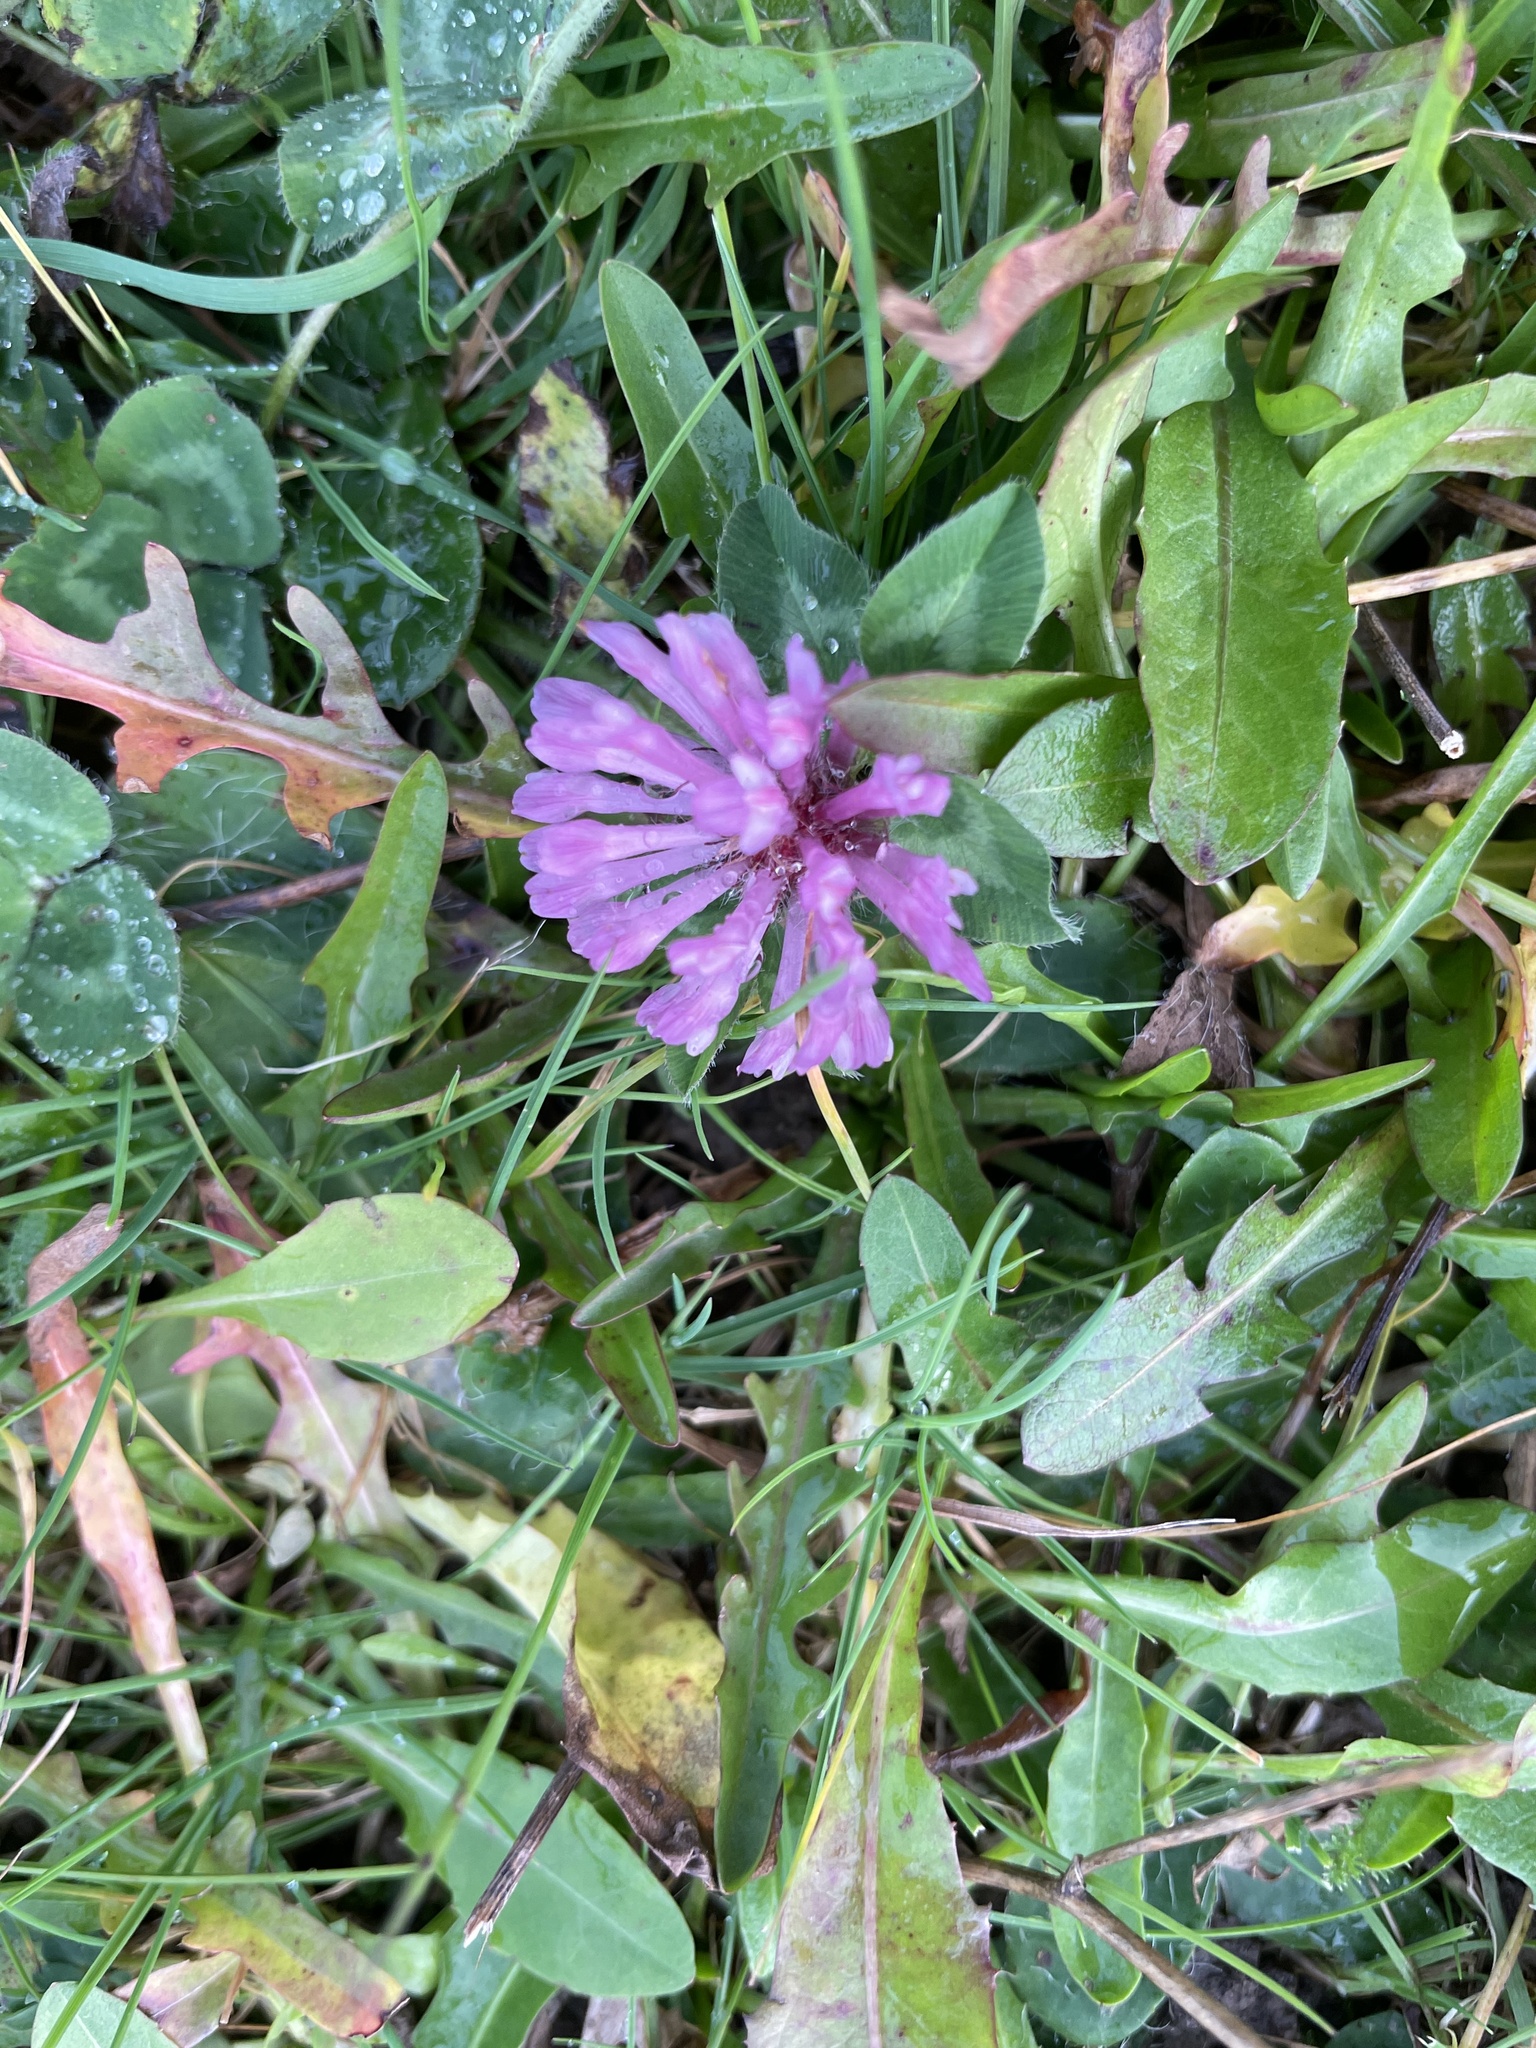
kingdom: Plantae
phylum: Tracheophyta
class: Magnoliopsida
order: Fabales
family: Fabaceae
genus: Trifolium
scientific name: Trifolium pratense
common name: Red clover
